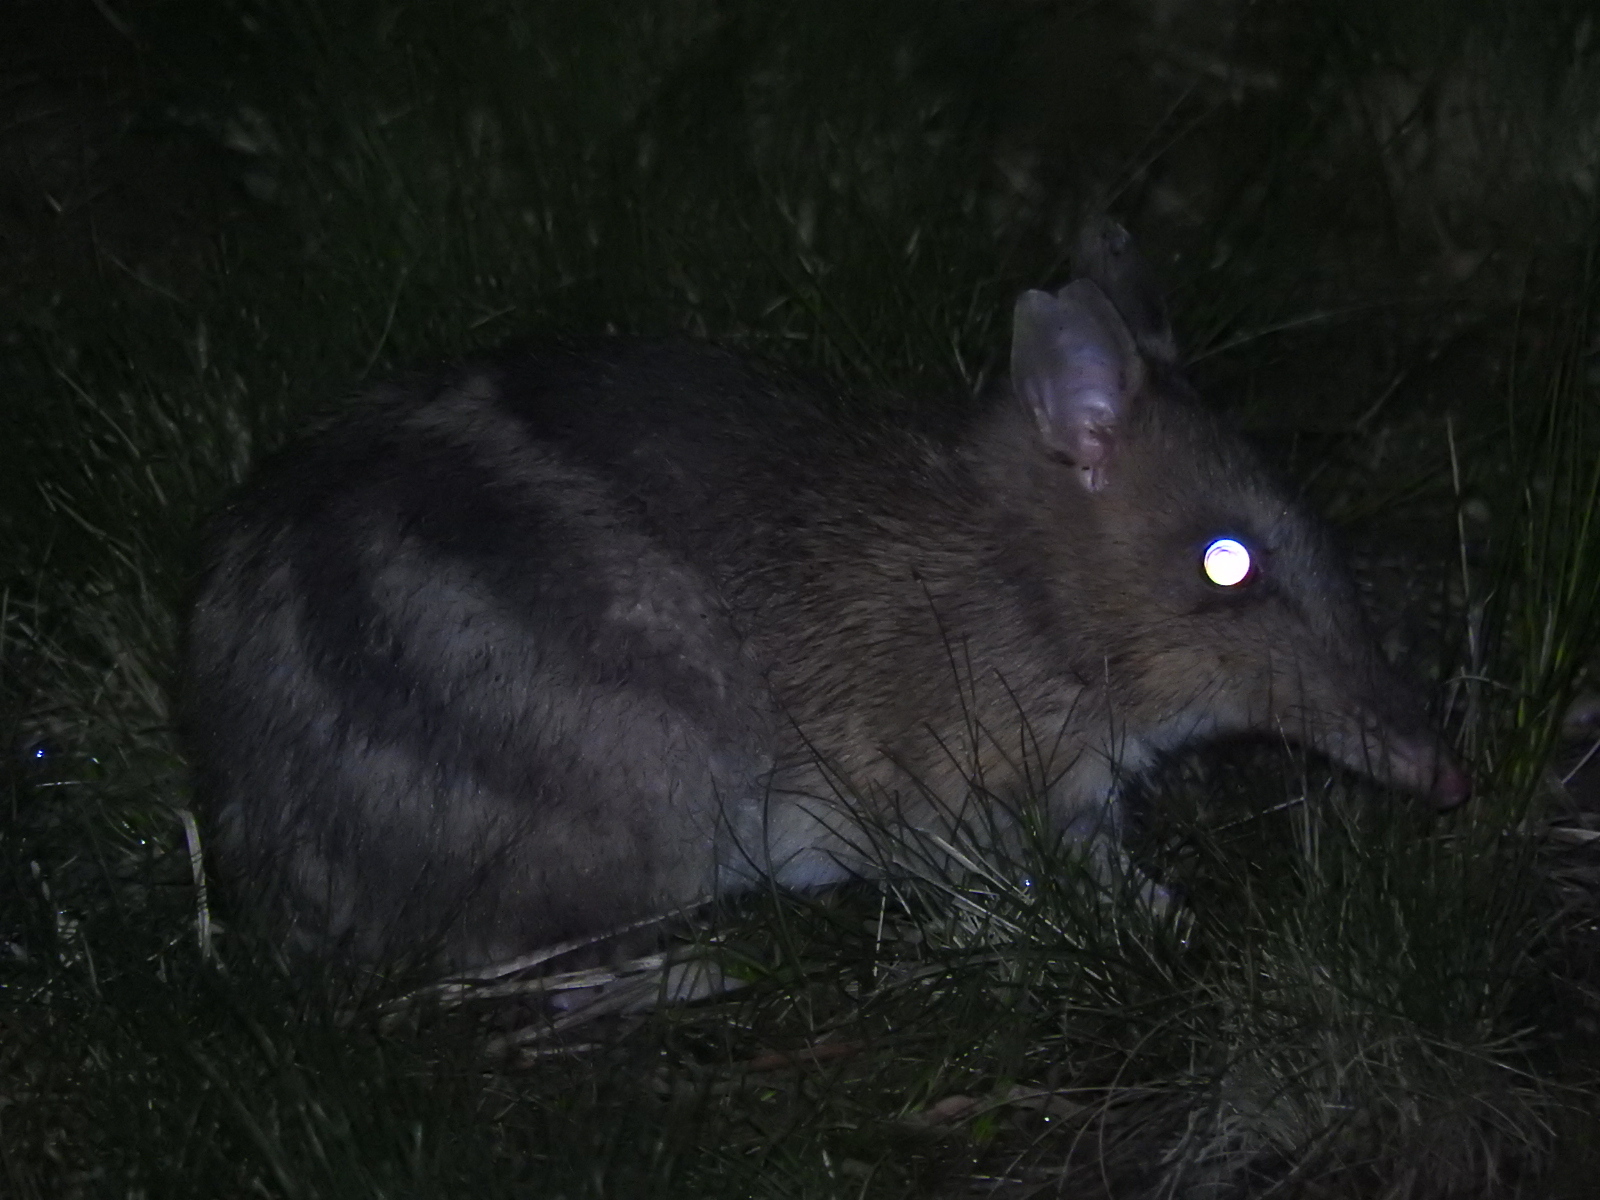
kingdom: Animalia
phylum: Chordata
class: Mammalia
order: Peramelemorphia
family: Peramelidae
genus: Perameles
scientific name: Perameles gunnii
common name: Eastern barred bandicoot
